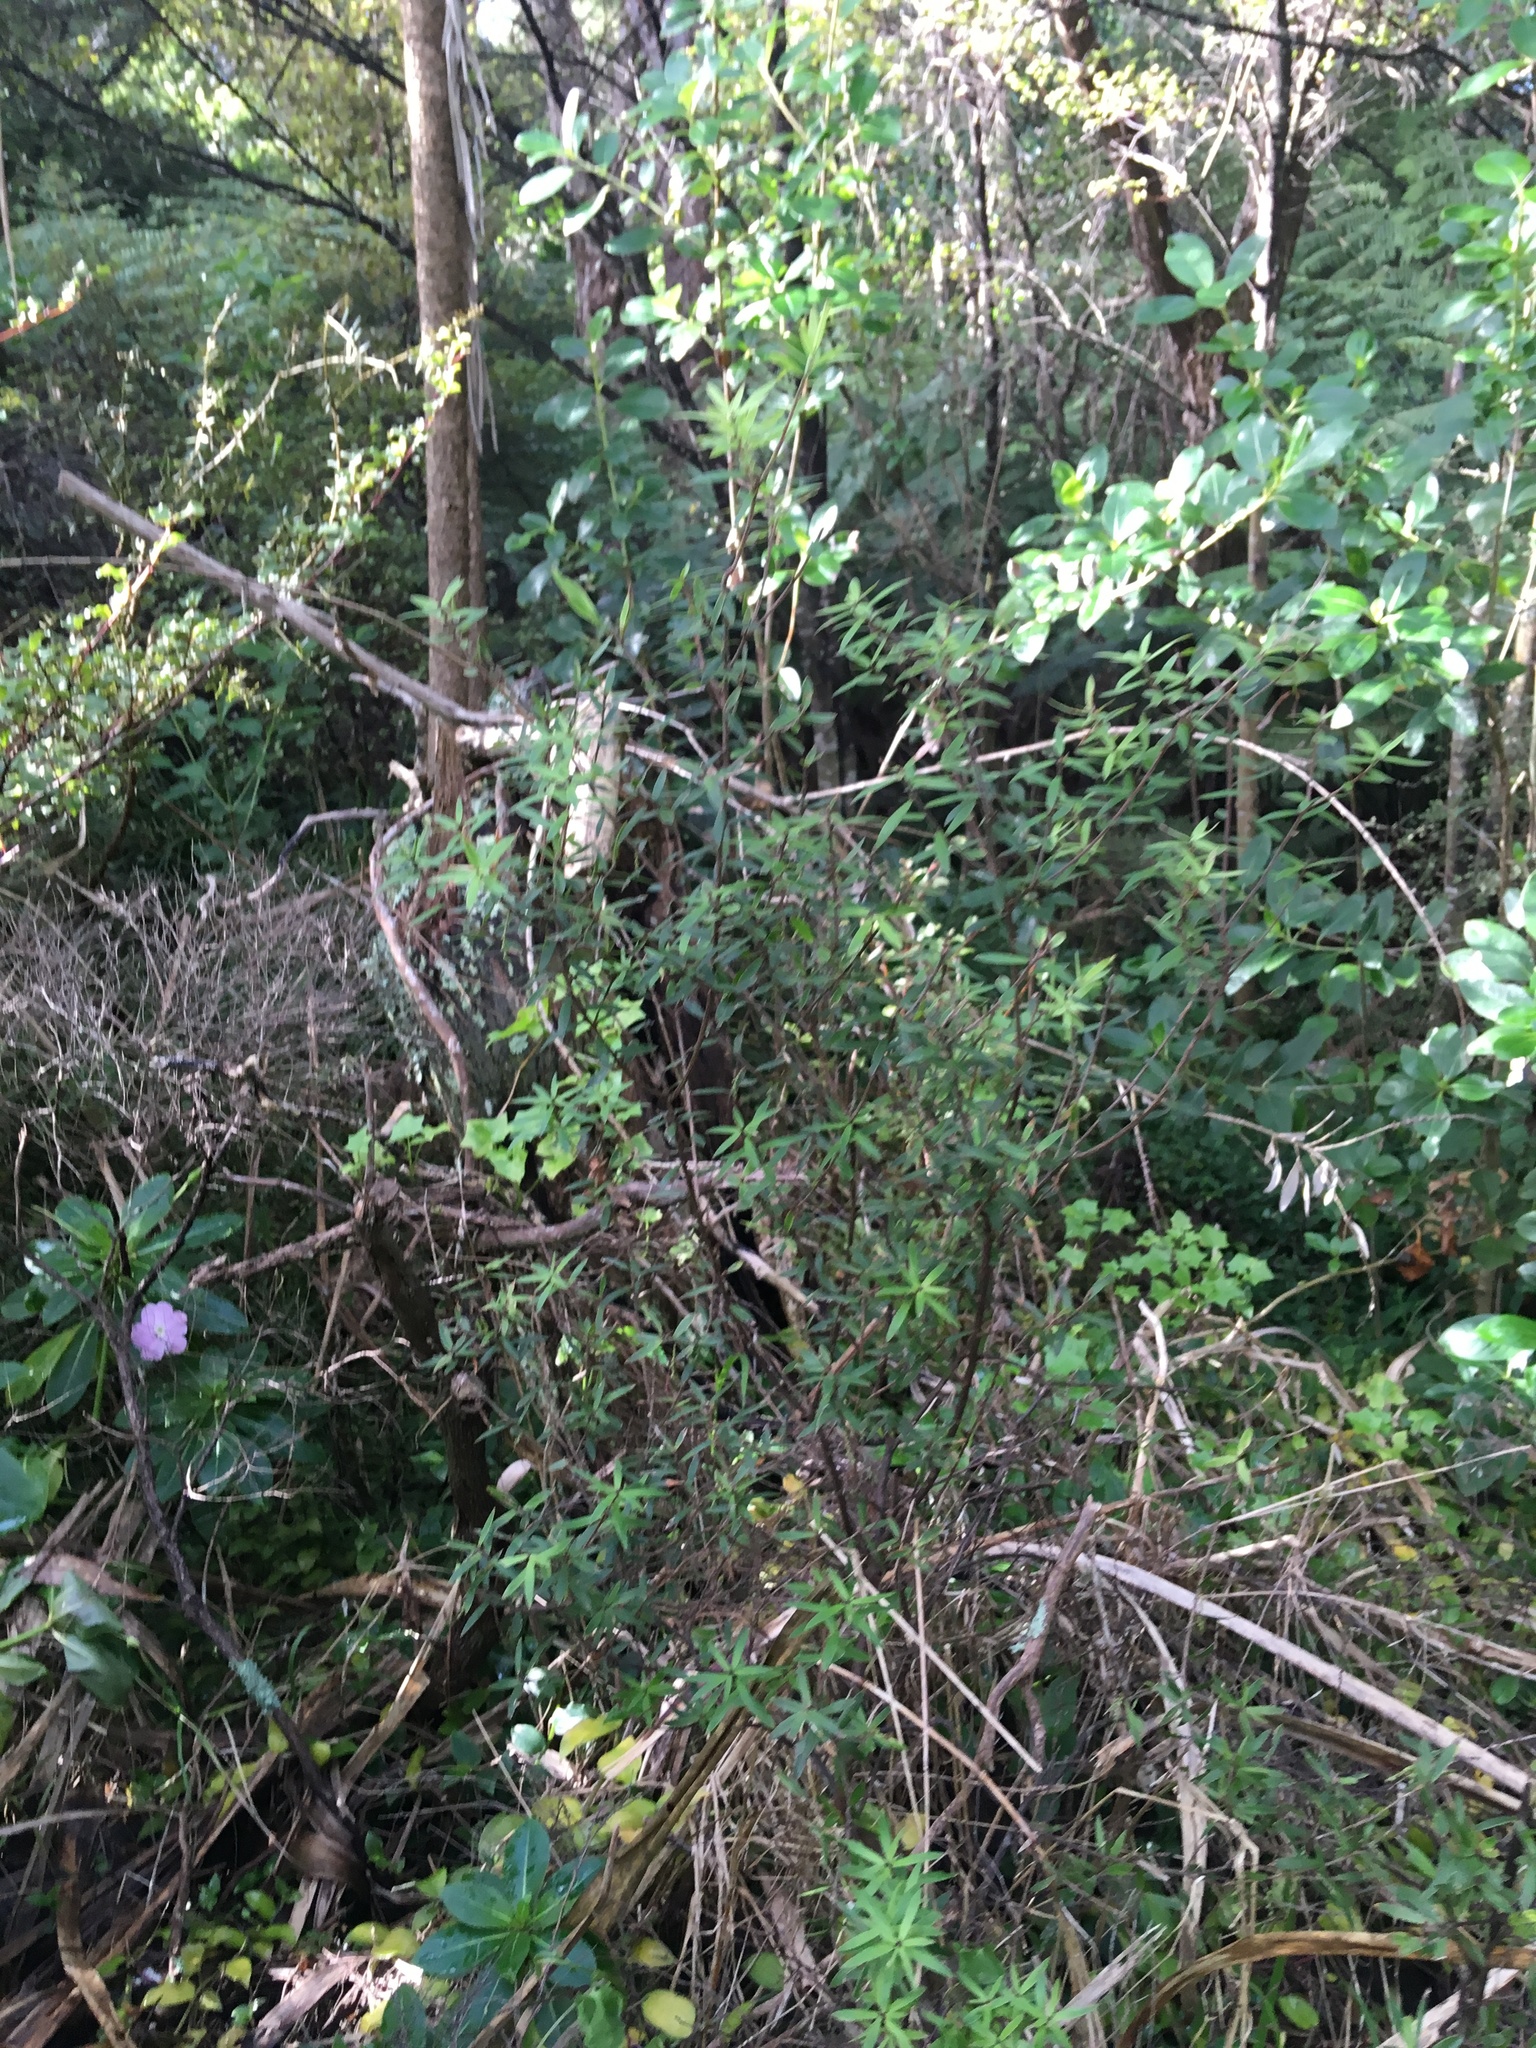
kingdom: Plantae
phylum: Tracheophyta
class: Magnoliopsida
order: Ericales
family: Ericaceae
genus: Leucopogon
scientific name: Leucopogon fasciculatus
